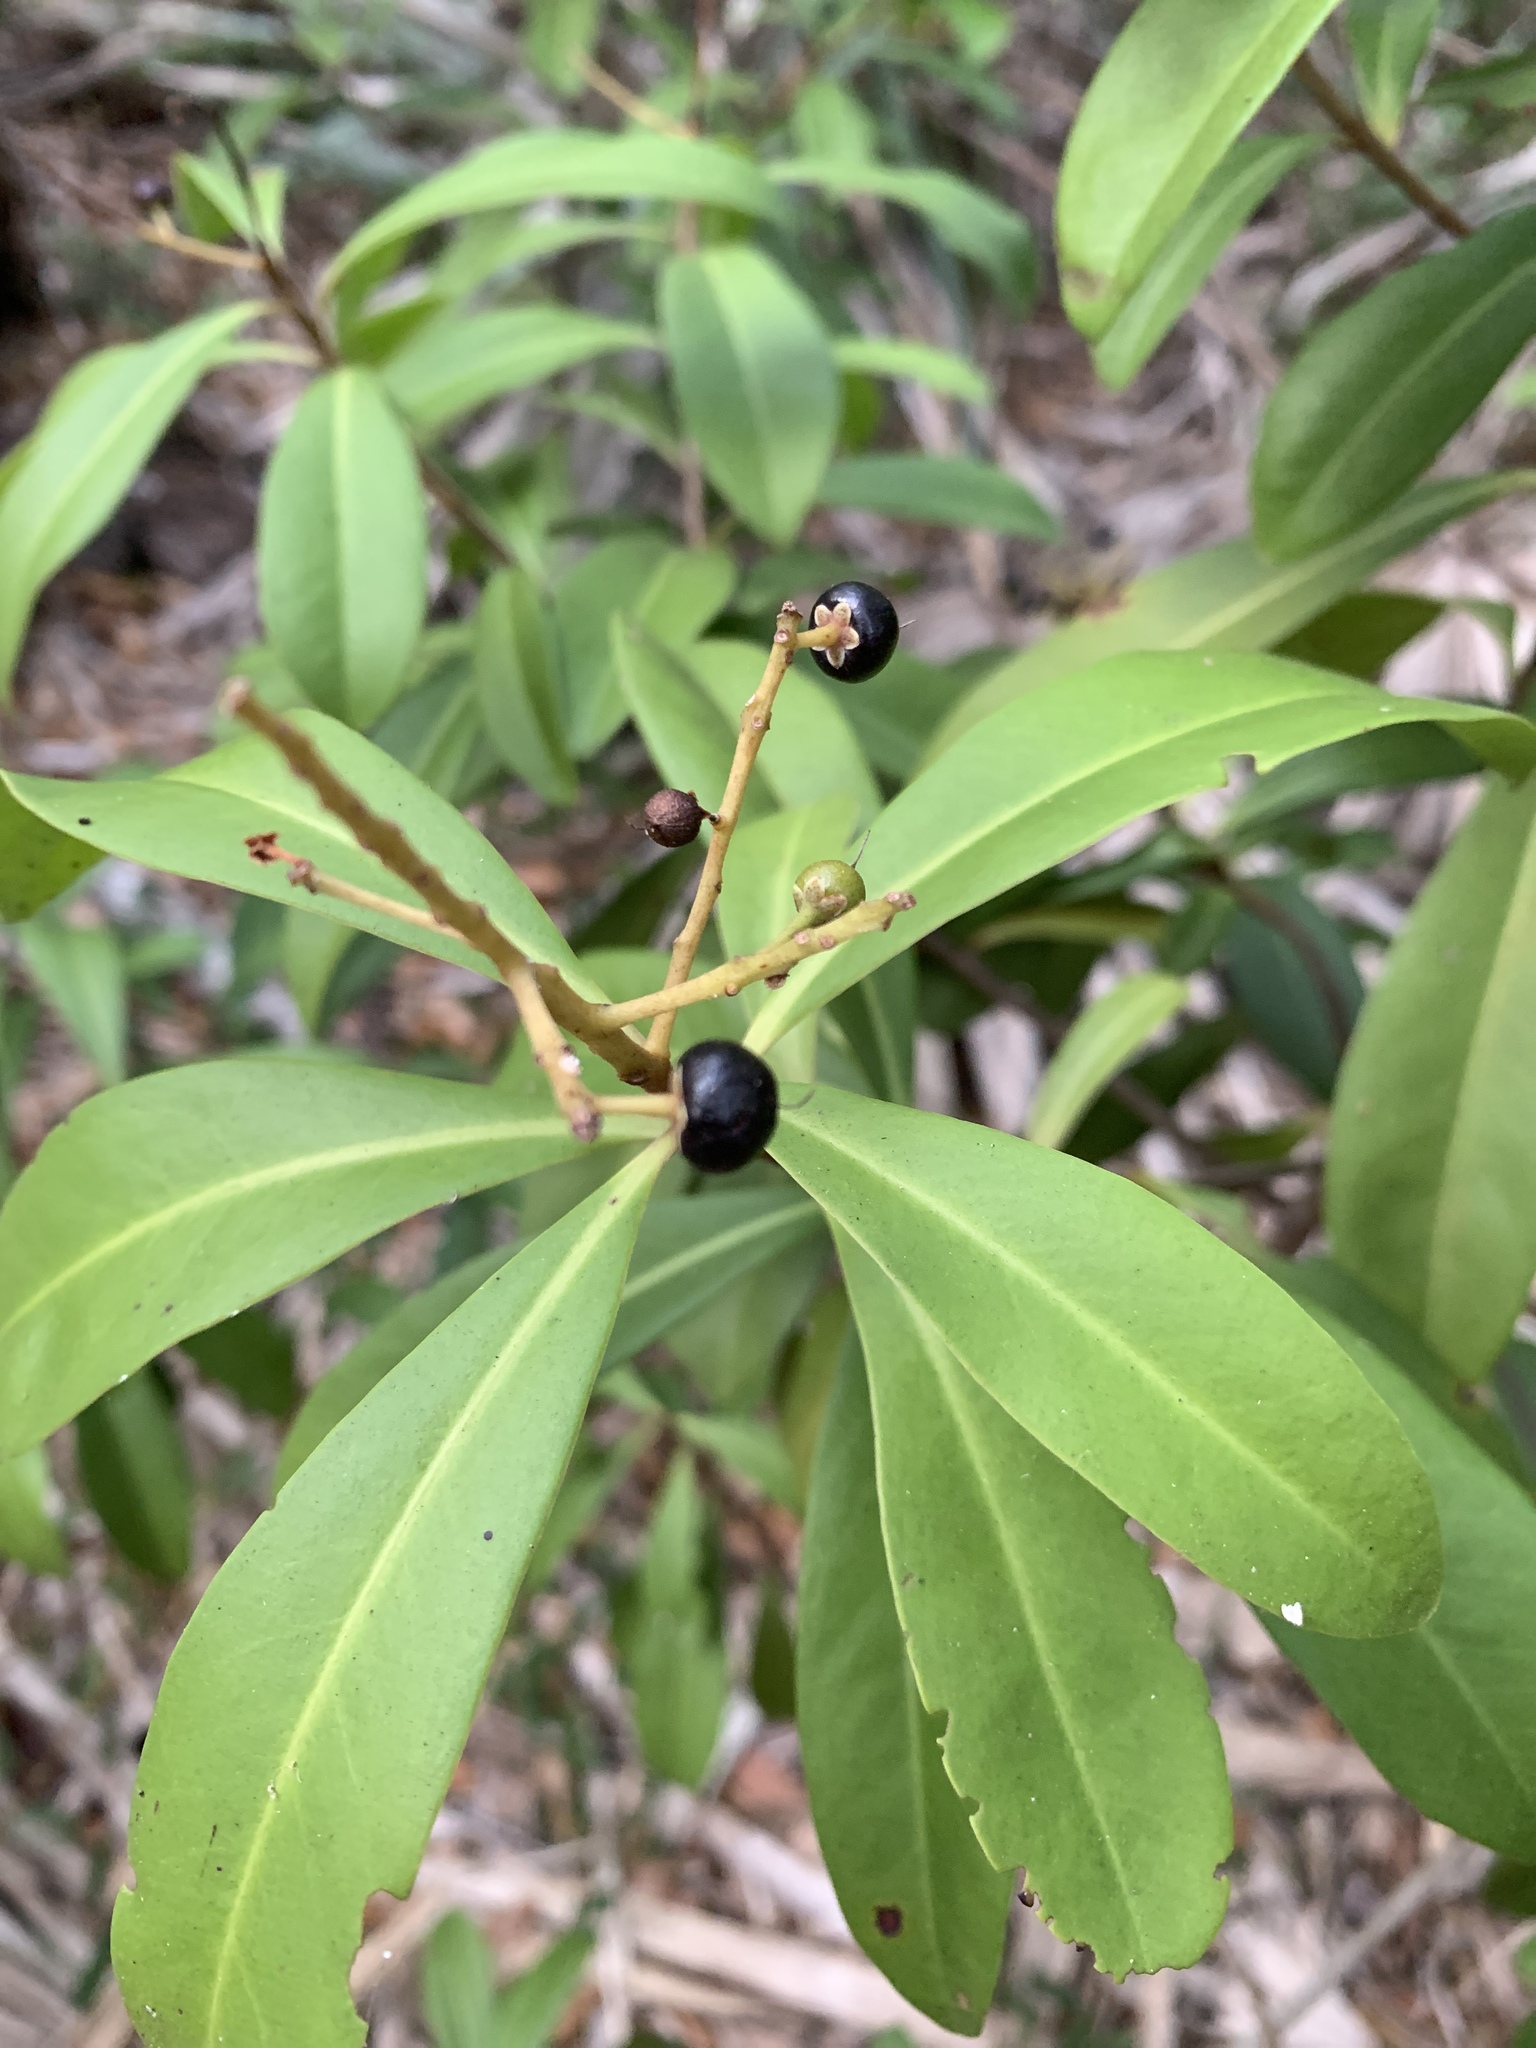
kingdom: Plantae
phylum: Tracheophyta
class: Magnoliopsida
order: Ericales
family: Primulaceae
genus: Ardisia
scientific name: Ardisia escallonioides
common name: Island marlberry
